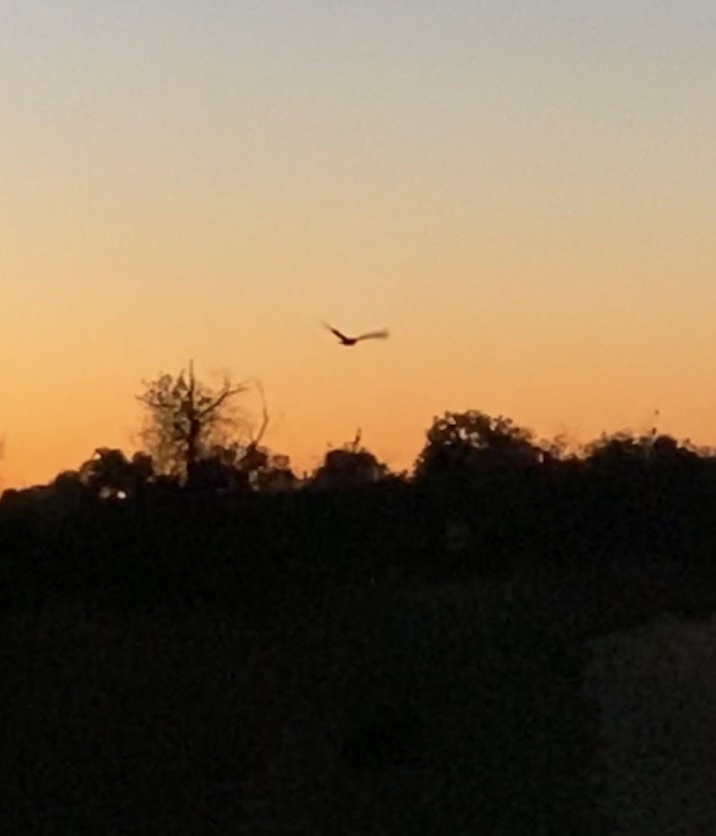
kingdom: Animalia
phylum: Chordata
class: Aves
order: Strigiformes
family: Strigidae
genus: Bubo
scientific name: Bubo virginianus
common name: Great horned owl
